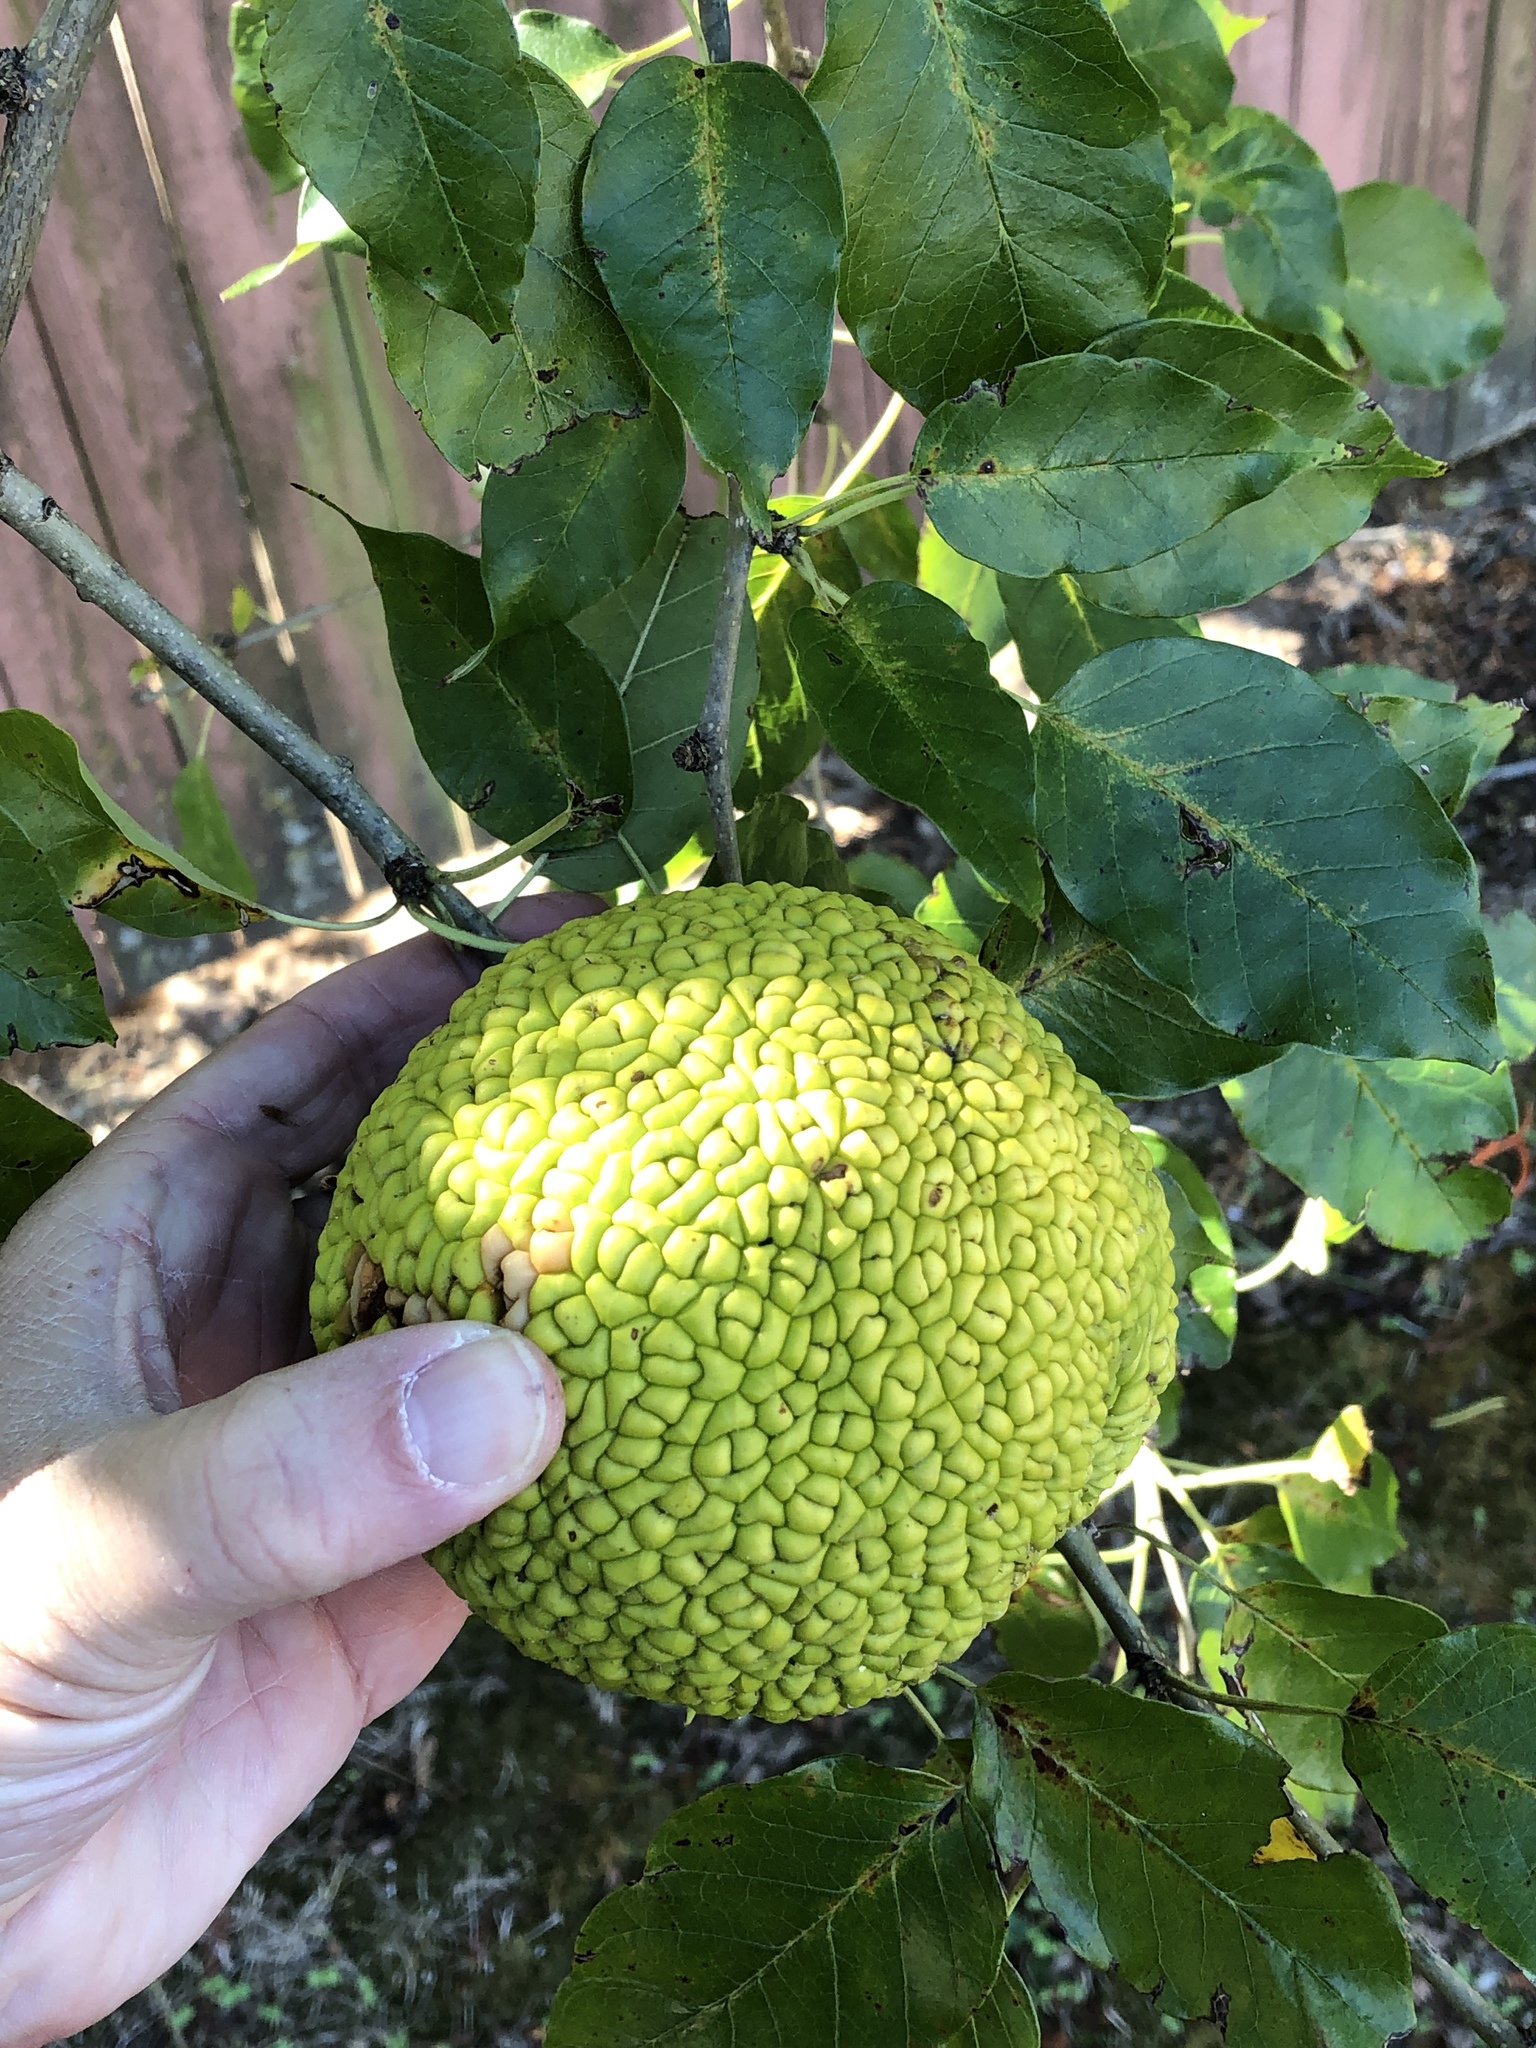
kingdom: Plantae
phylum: Tracheophyta
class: Magnoliopsida
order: Rosales
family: Moraceae
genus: Maclura
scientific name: Maclura pomifera
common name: Osage-orange
